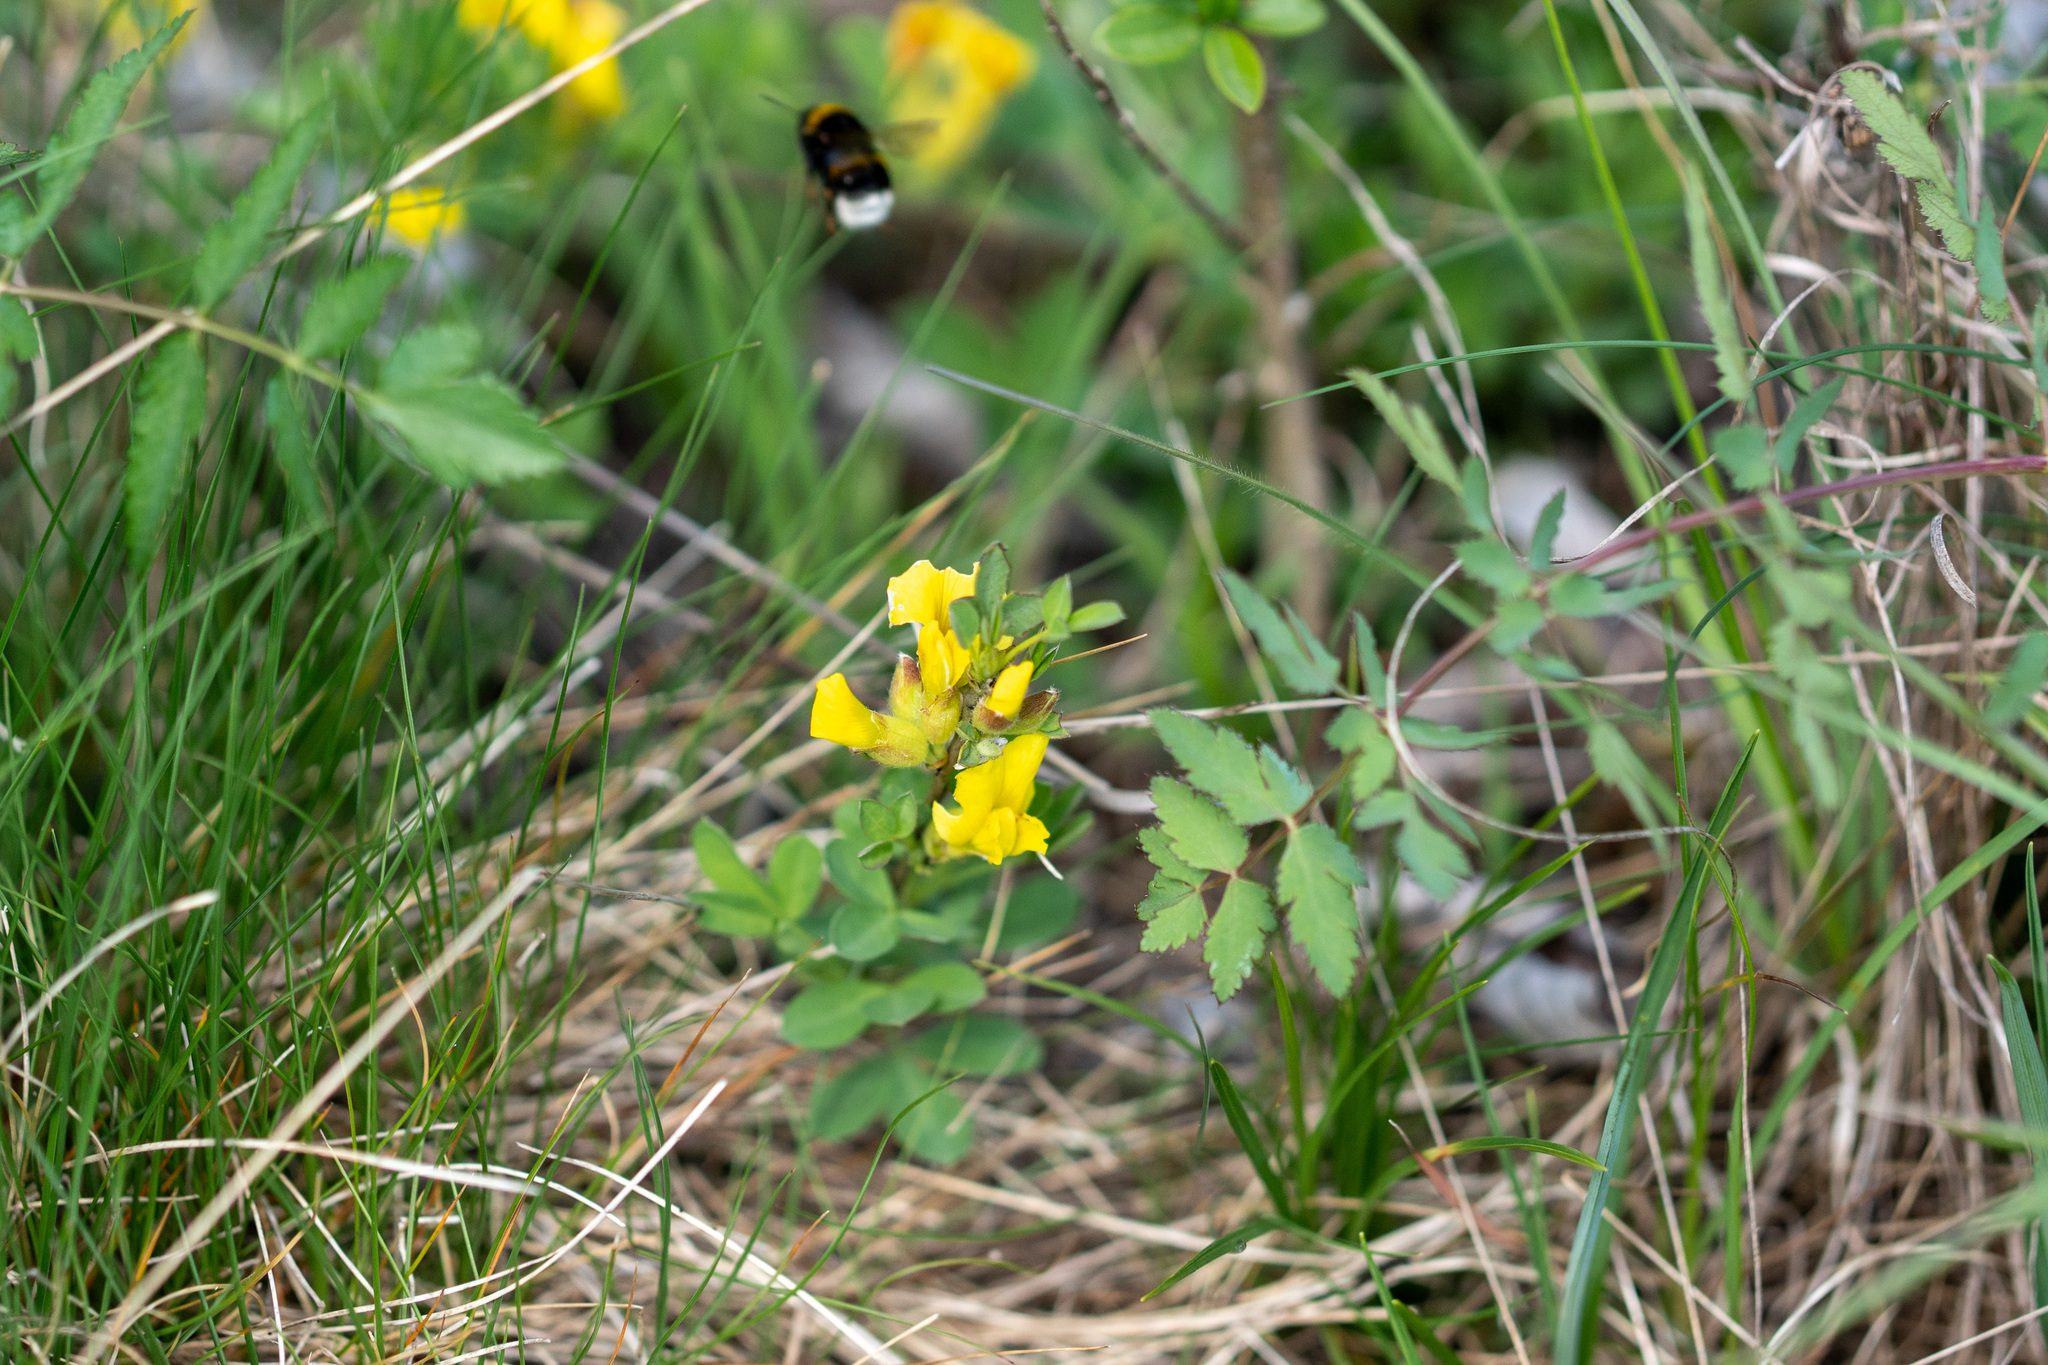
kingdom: Plantae
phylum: Tracheophyta
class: Magnoliopsida
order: Fabales
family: Fabaceae
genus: Chamaecytisus
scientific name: Chamaecytisus ratisbonensis
